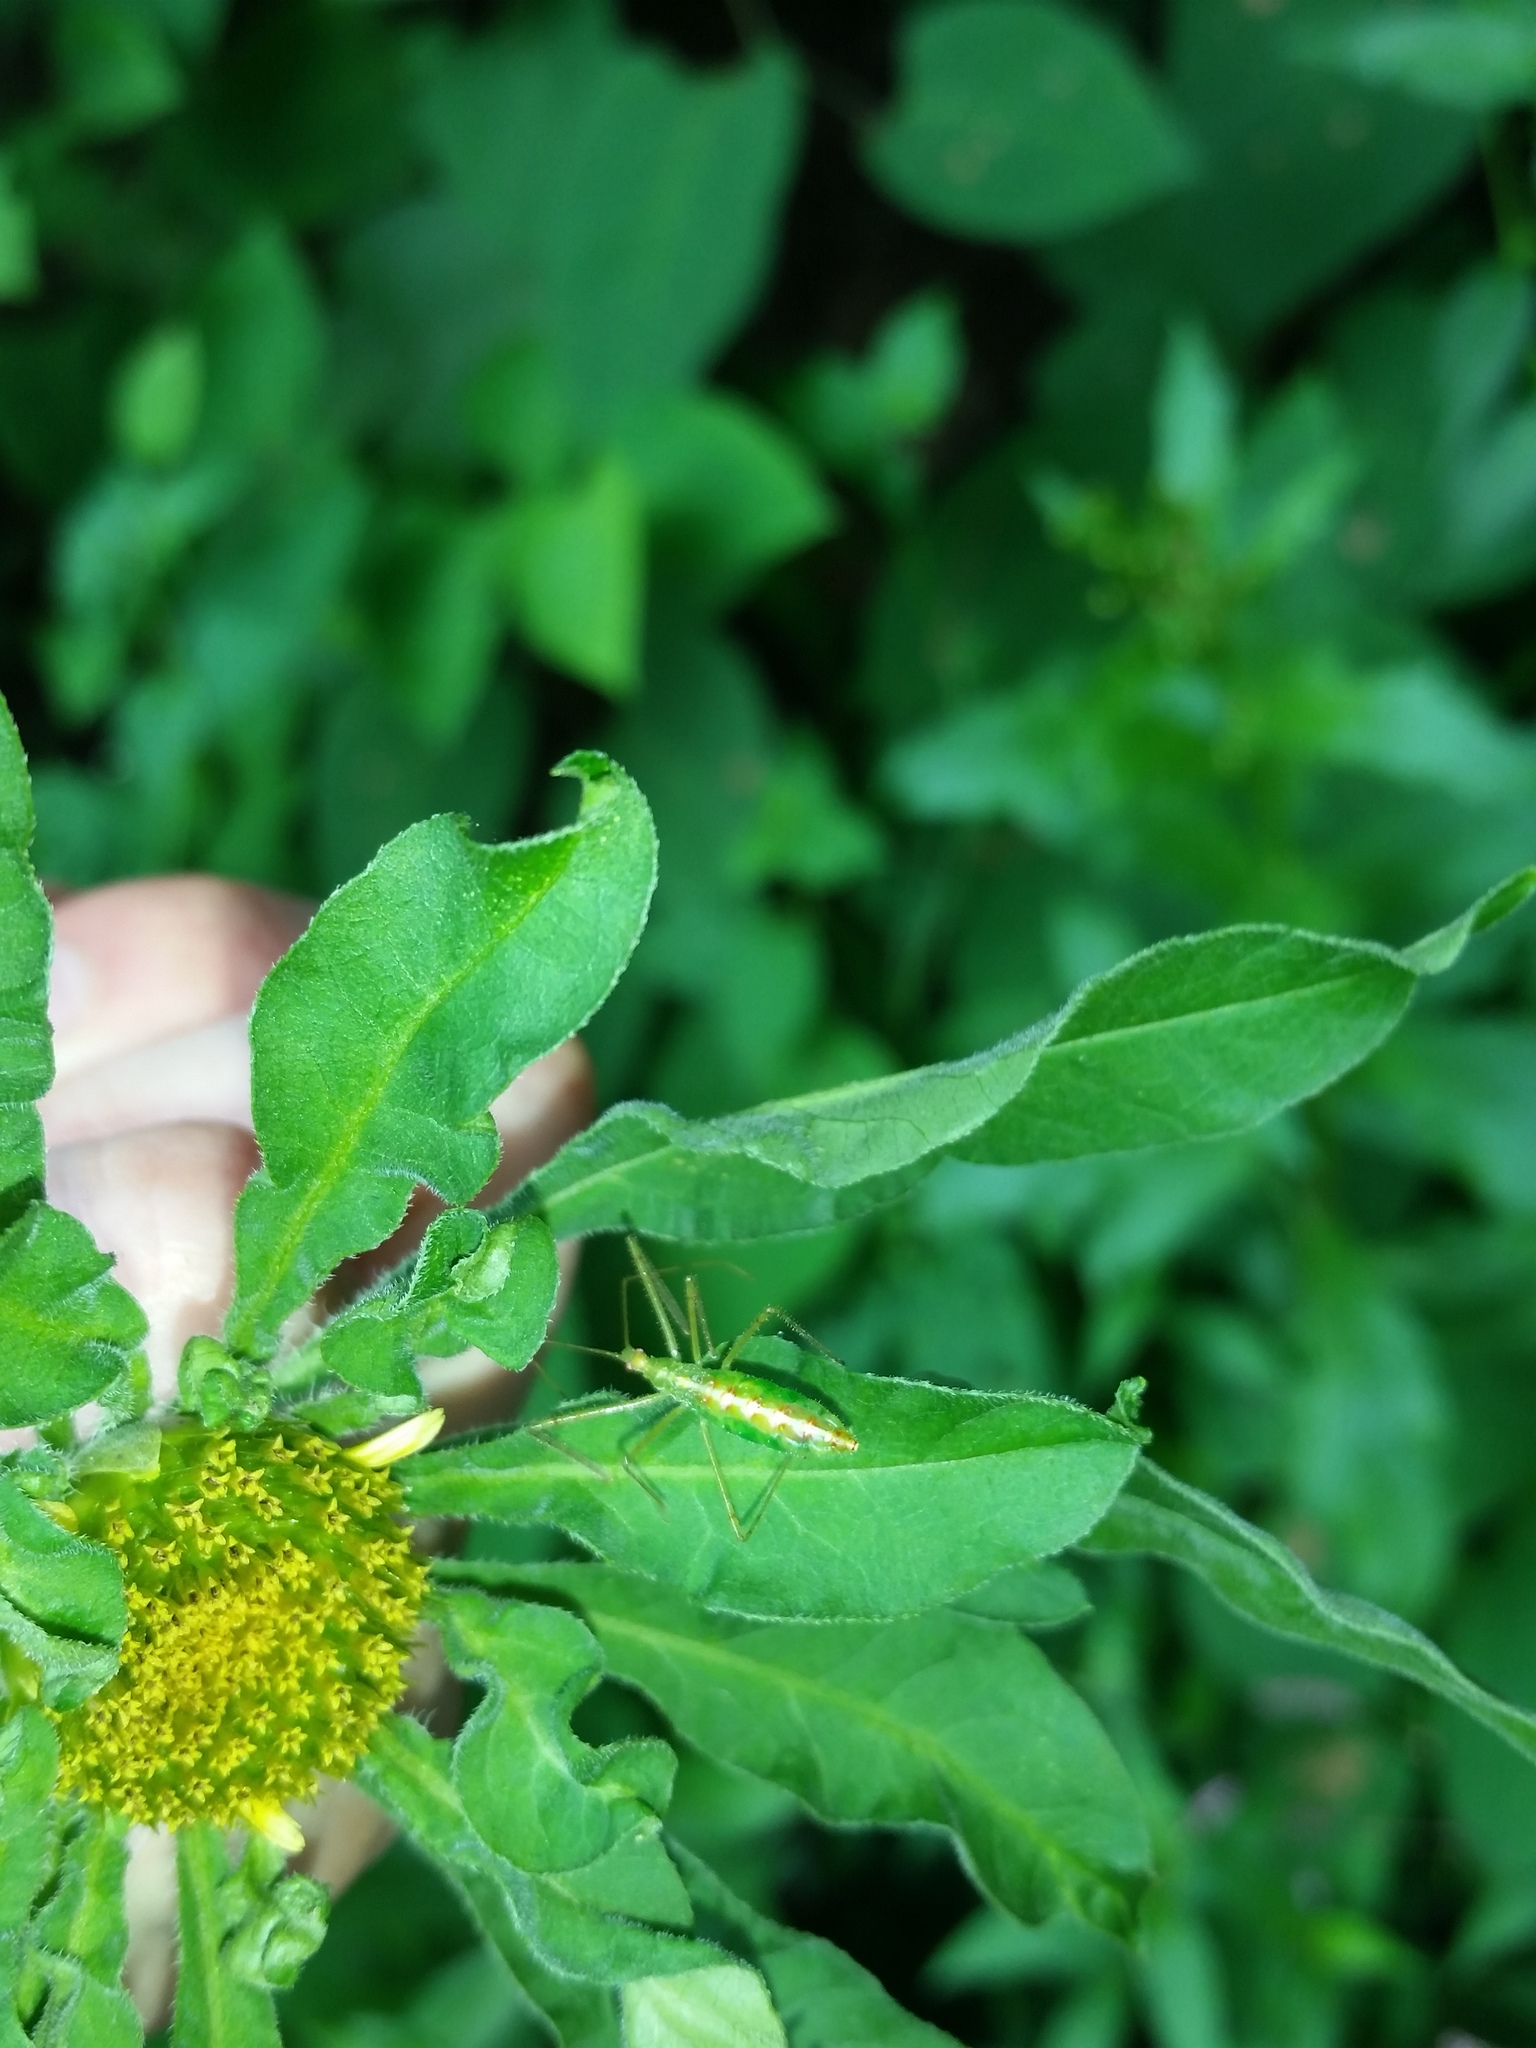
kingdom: Animalia
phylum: Arthropoda
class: Insecta
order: Hemiptera
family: Reduviidae
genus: Zelus
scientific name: Zelus luridus
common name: Pale green assassin bug
